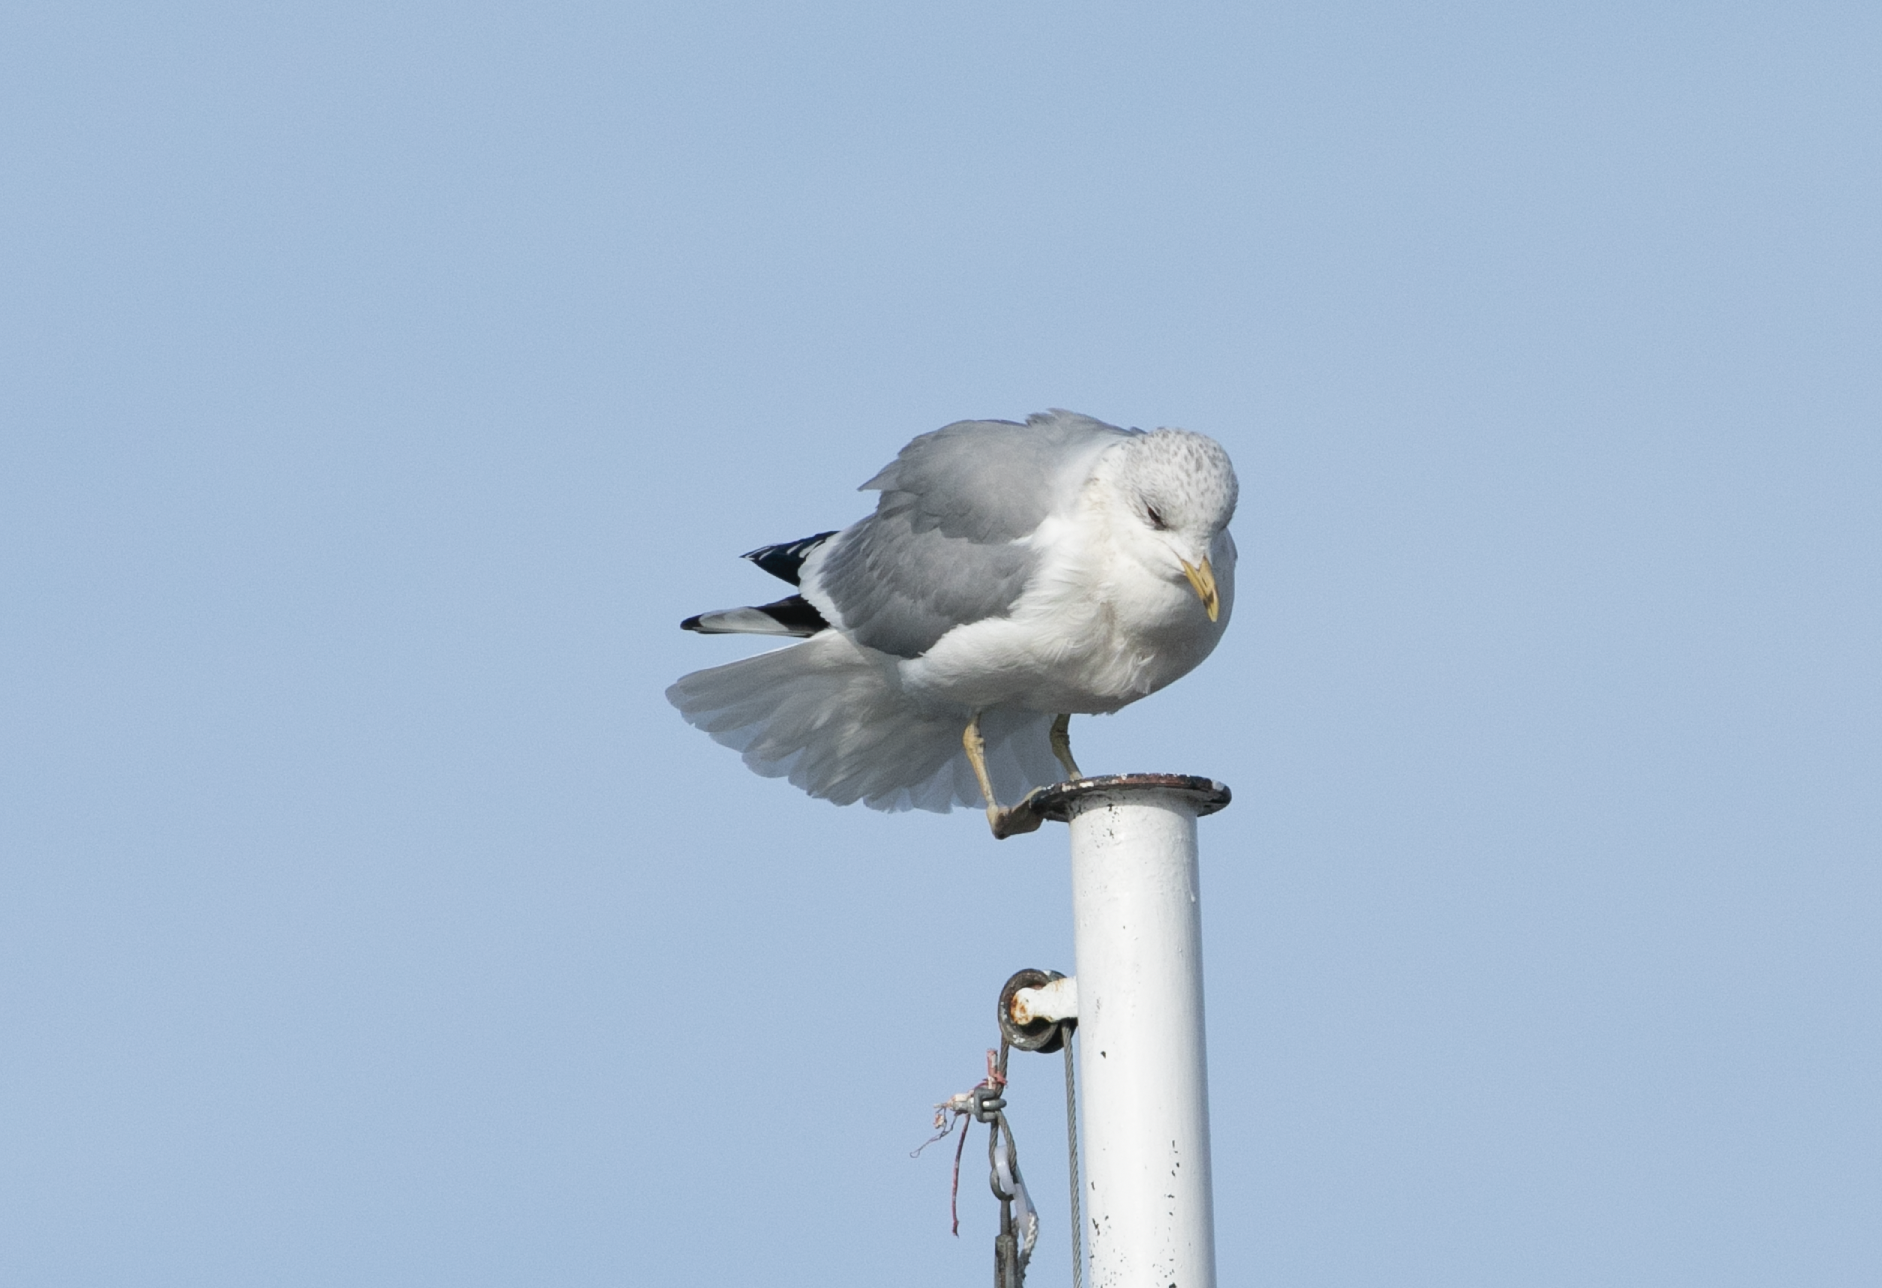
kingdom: Animalia
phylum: Chordata
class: Aves
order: Charadriiformes
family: Laridae
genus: Larus
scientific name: Larus canus
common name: Mew gull
